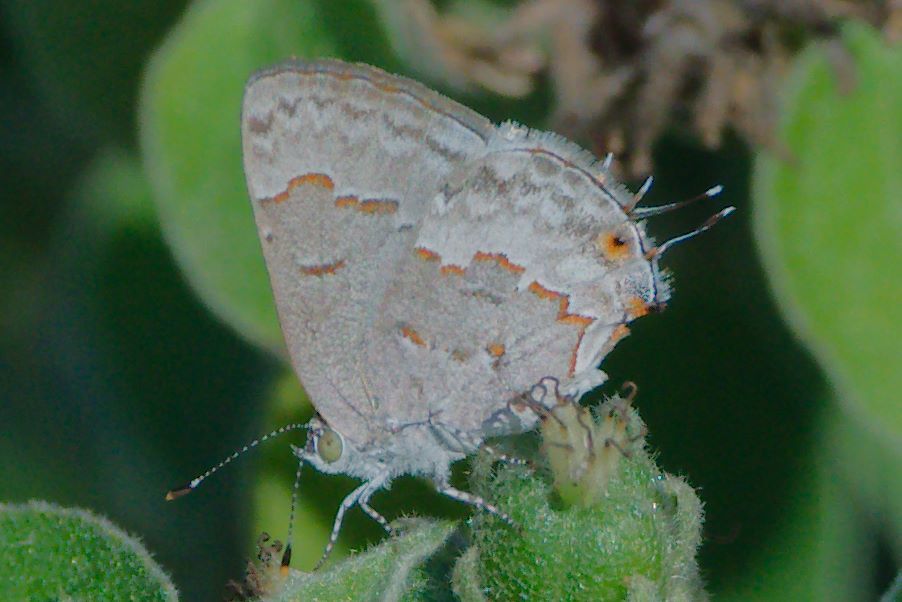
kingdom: Animalia
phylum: Arthropoda
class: Insecta
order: Lepidoptera
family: Lycaenidae
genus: Ministrymon
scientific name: Ministrymon clytie
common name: Clytie ministreak
